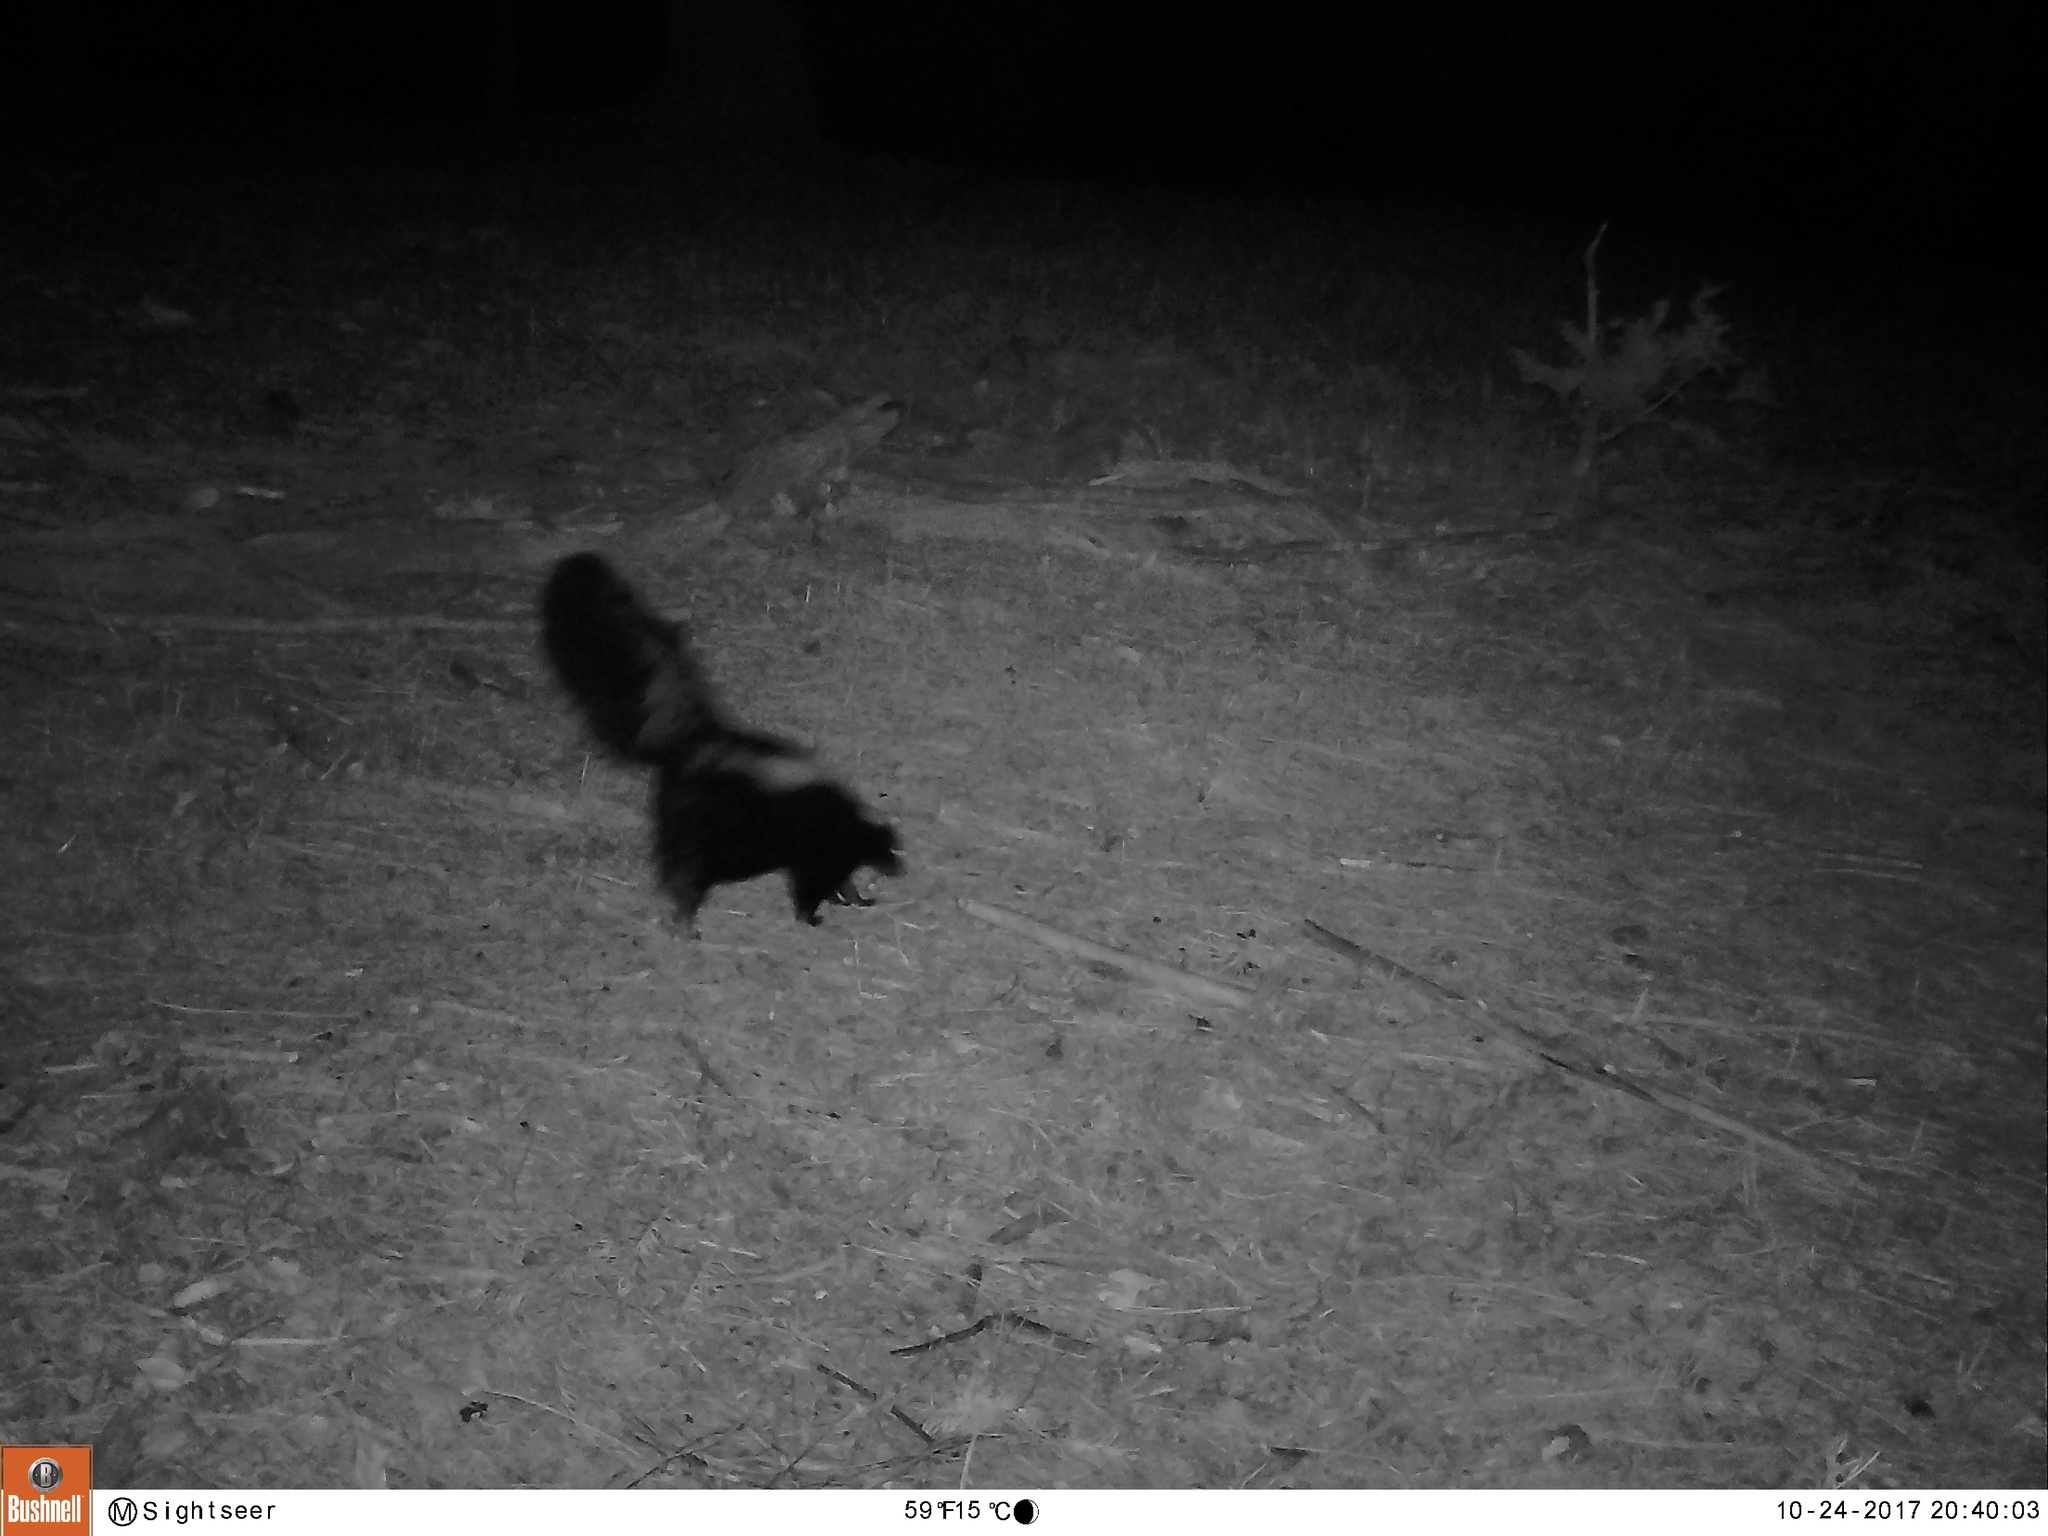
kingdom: Animalia
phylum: Chordata
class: Mammalia
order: Carnivora
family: Mephitidae
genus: Mephitis
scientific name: Mephitis mephitis
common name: Striped skunk
